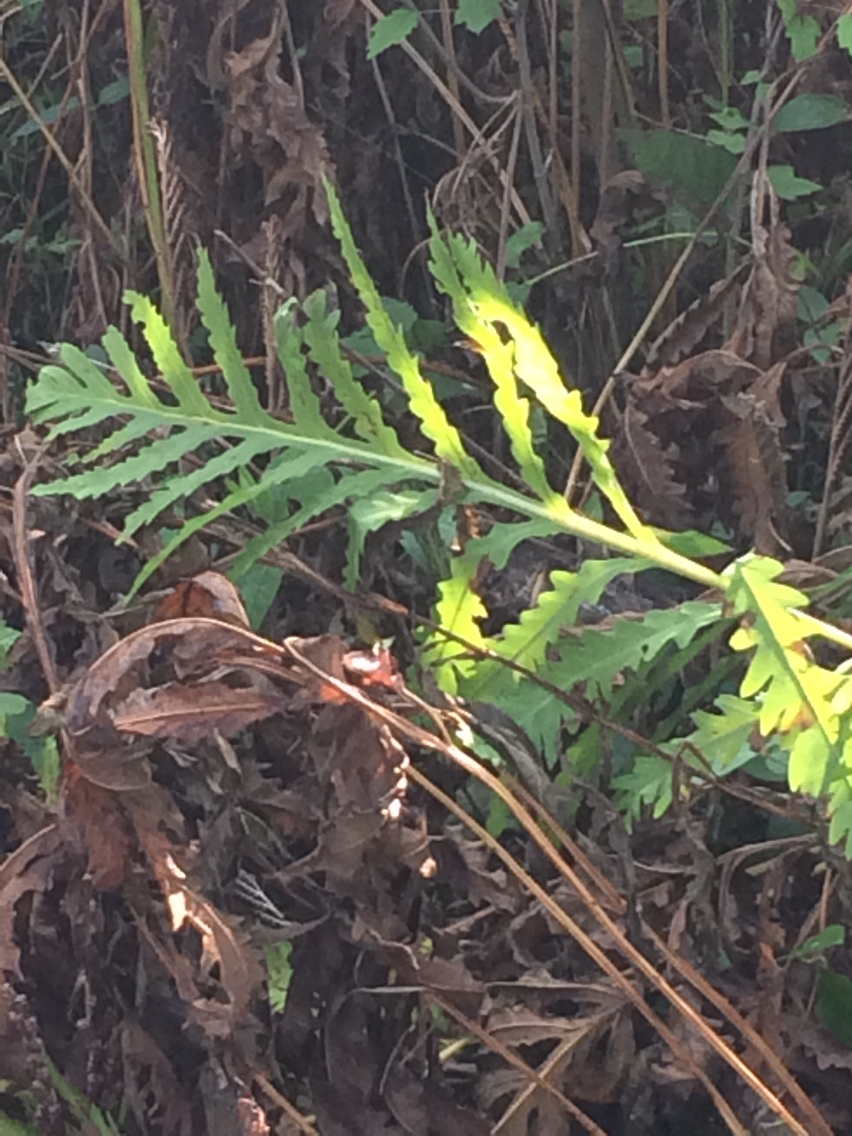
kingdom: Plantae
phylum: Tracheophyta
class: Polypodiopsida
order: Polypodiales
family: Onocleaceae
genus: Onoclea
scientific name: Onoclea sensibilis
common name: Sensitive fern
